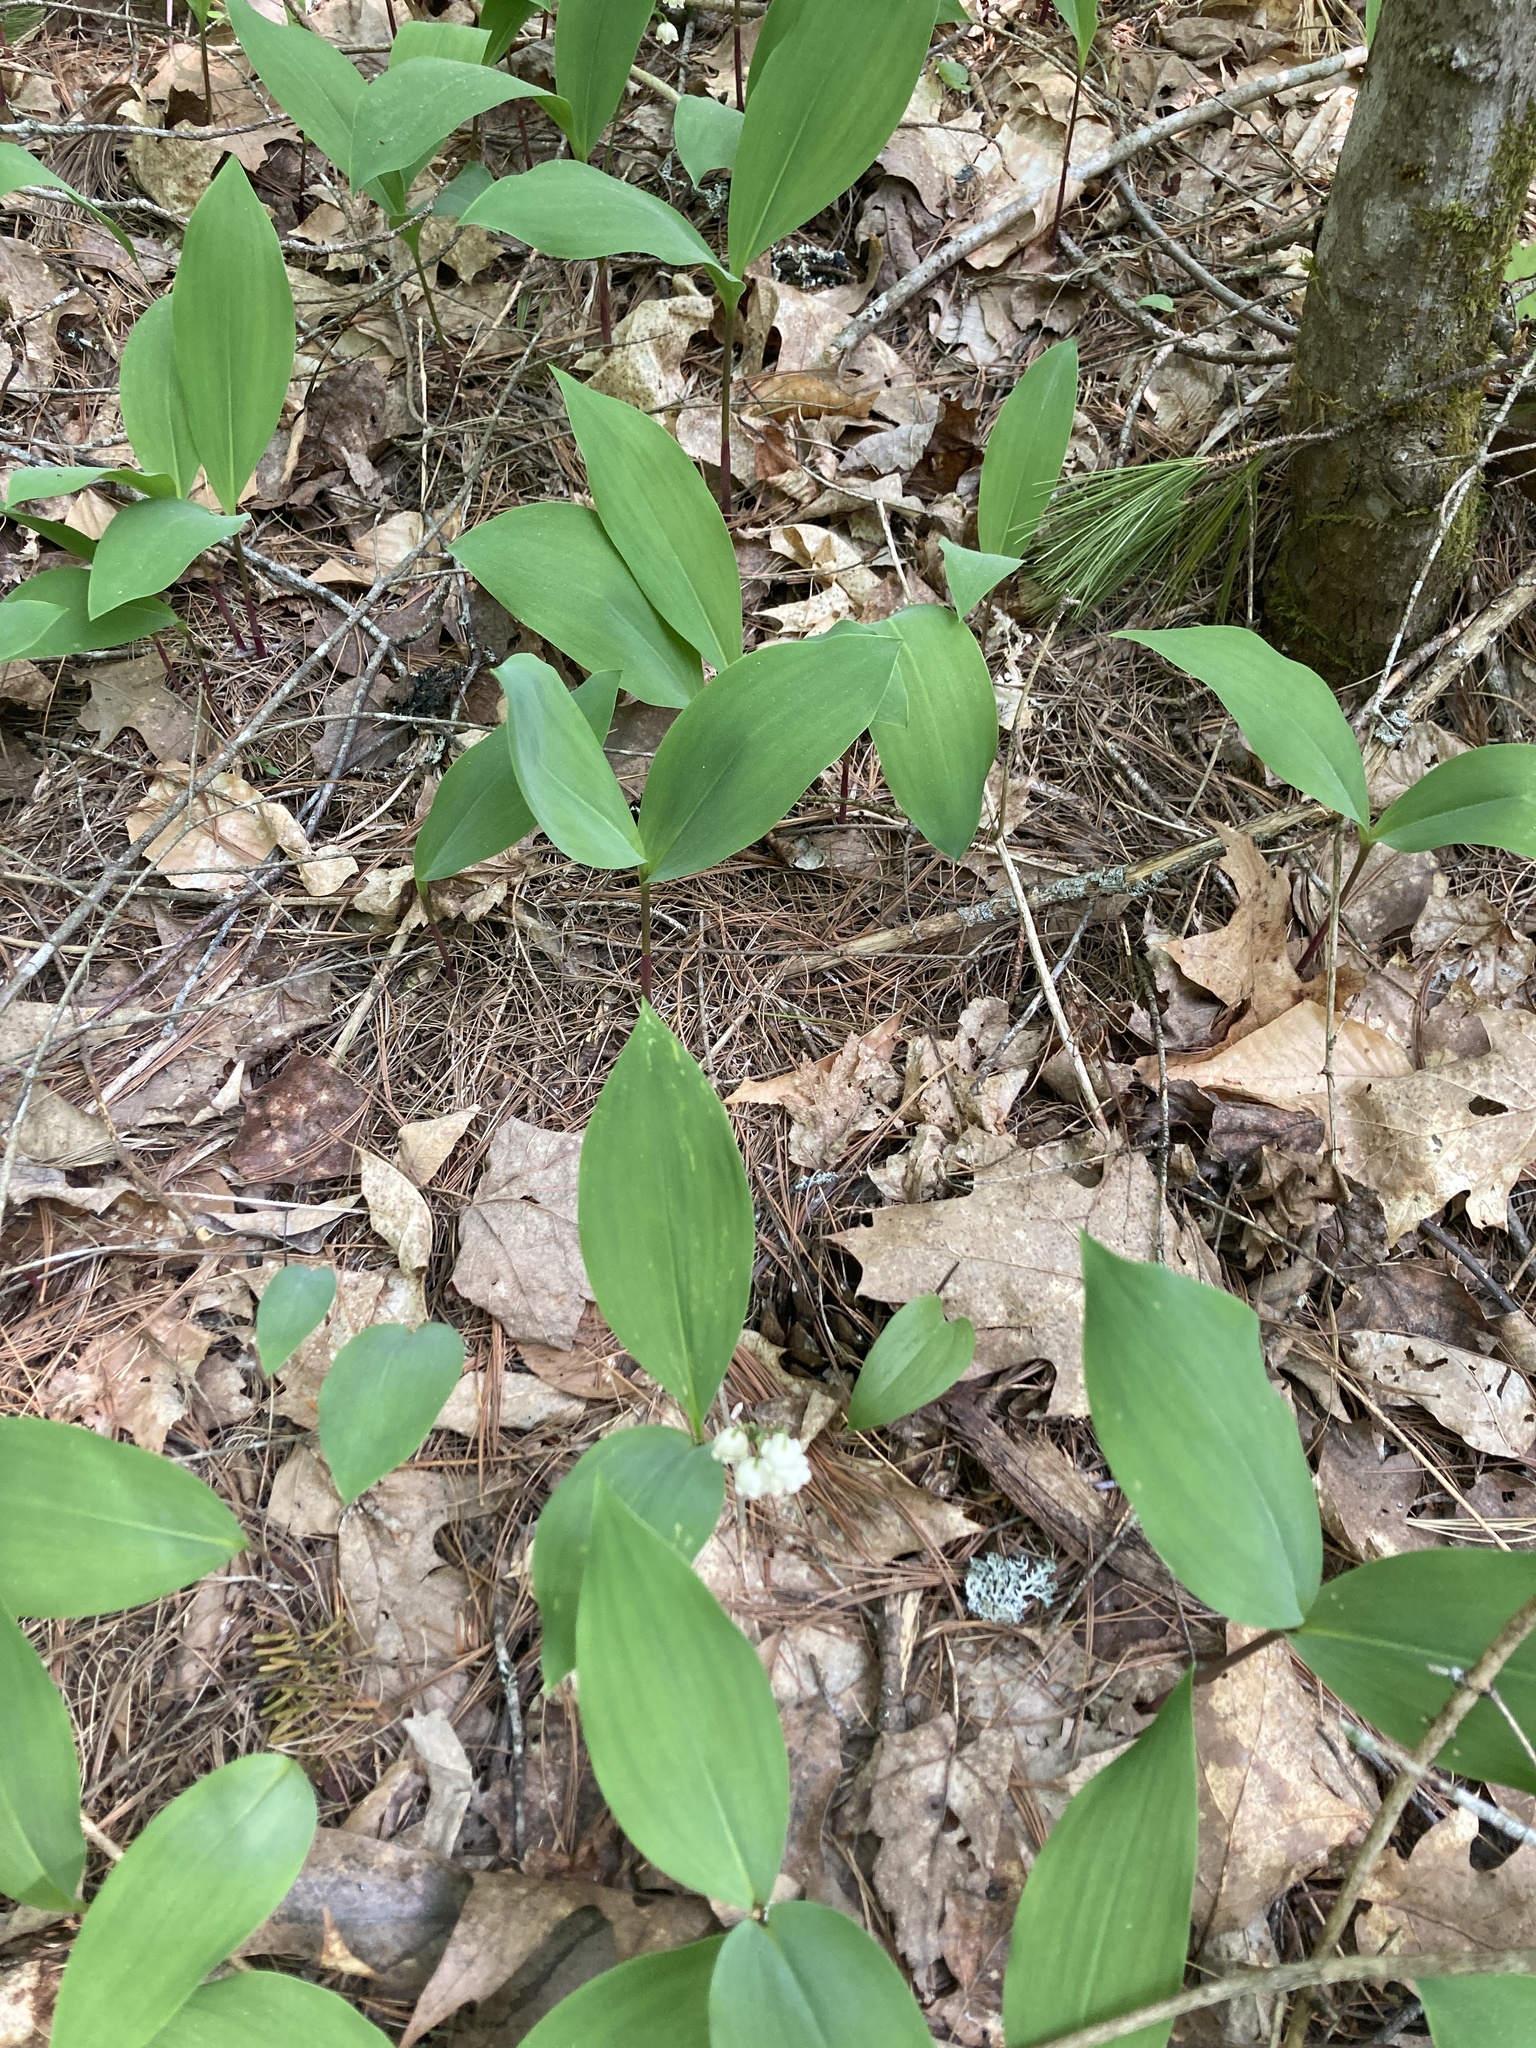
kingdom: Plantae
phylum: Tracheophyta
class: Liliopsida
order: Asparagales
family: Asparagaceae
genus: Convallaria
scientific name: Convallaria majalis
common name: Lily-of-the-valley
